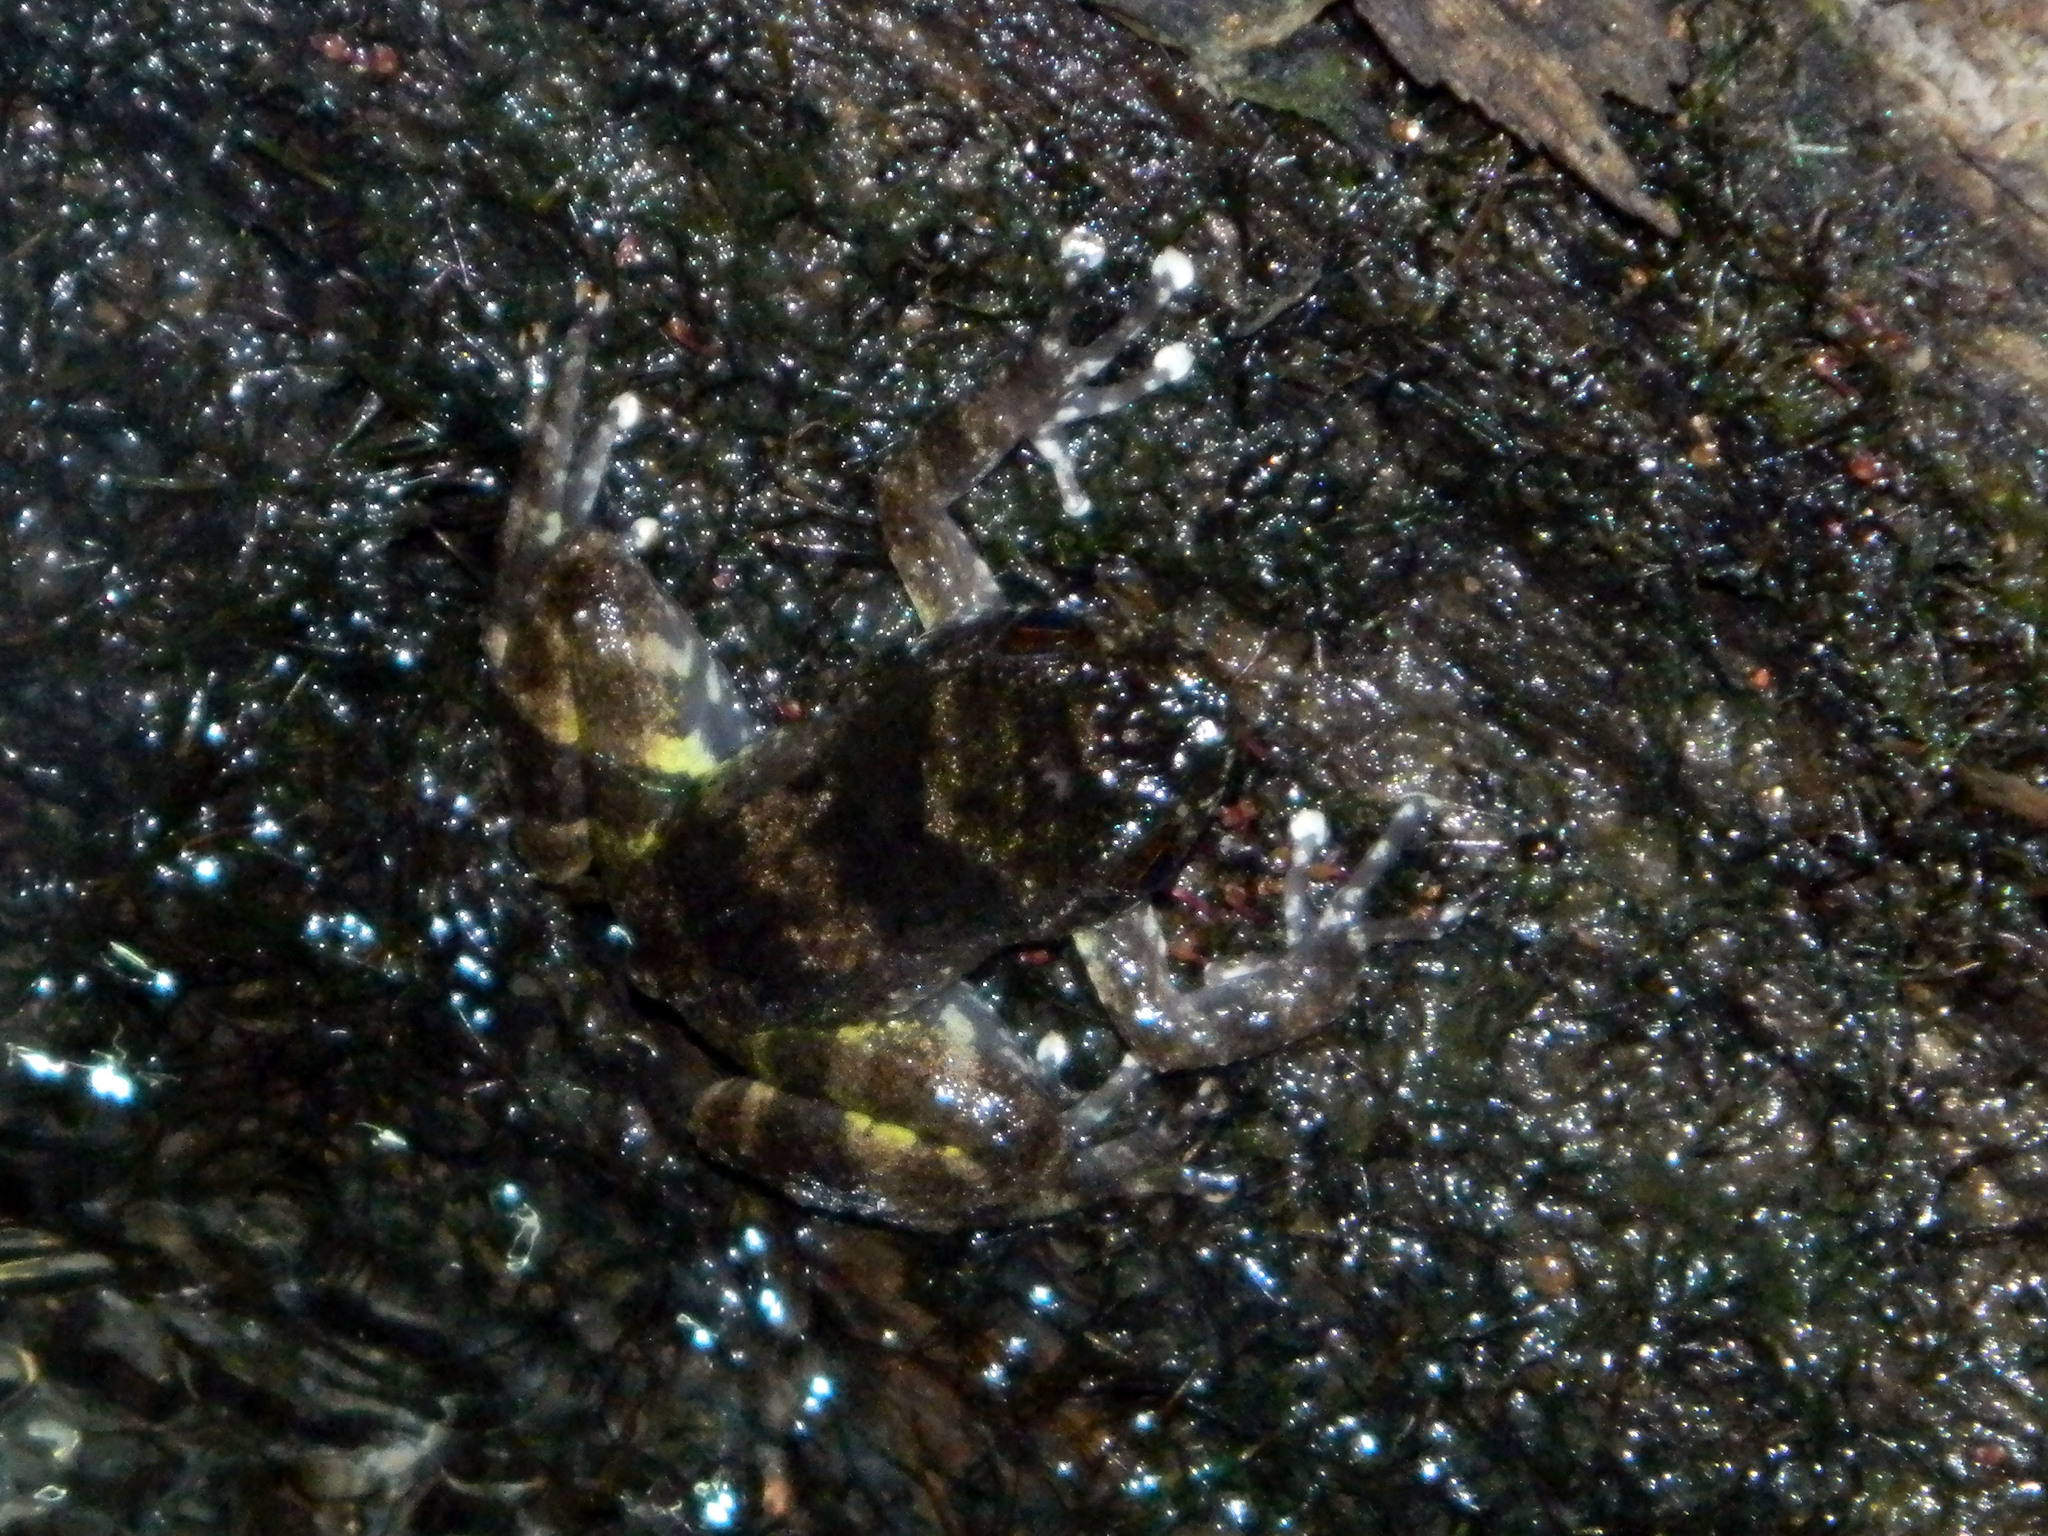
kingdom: Animalia
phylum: Chordata
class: Amphibia
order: Anura
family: Mantellidae
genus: Mantidactylus
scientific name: Mantidactylus lugubris
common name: Dumeril's madagascar frog
